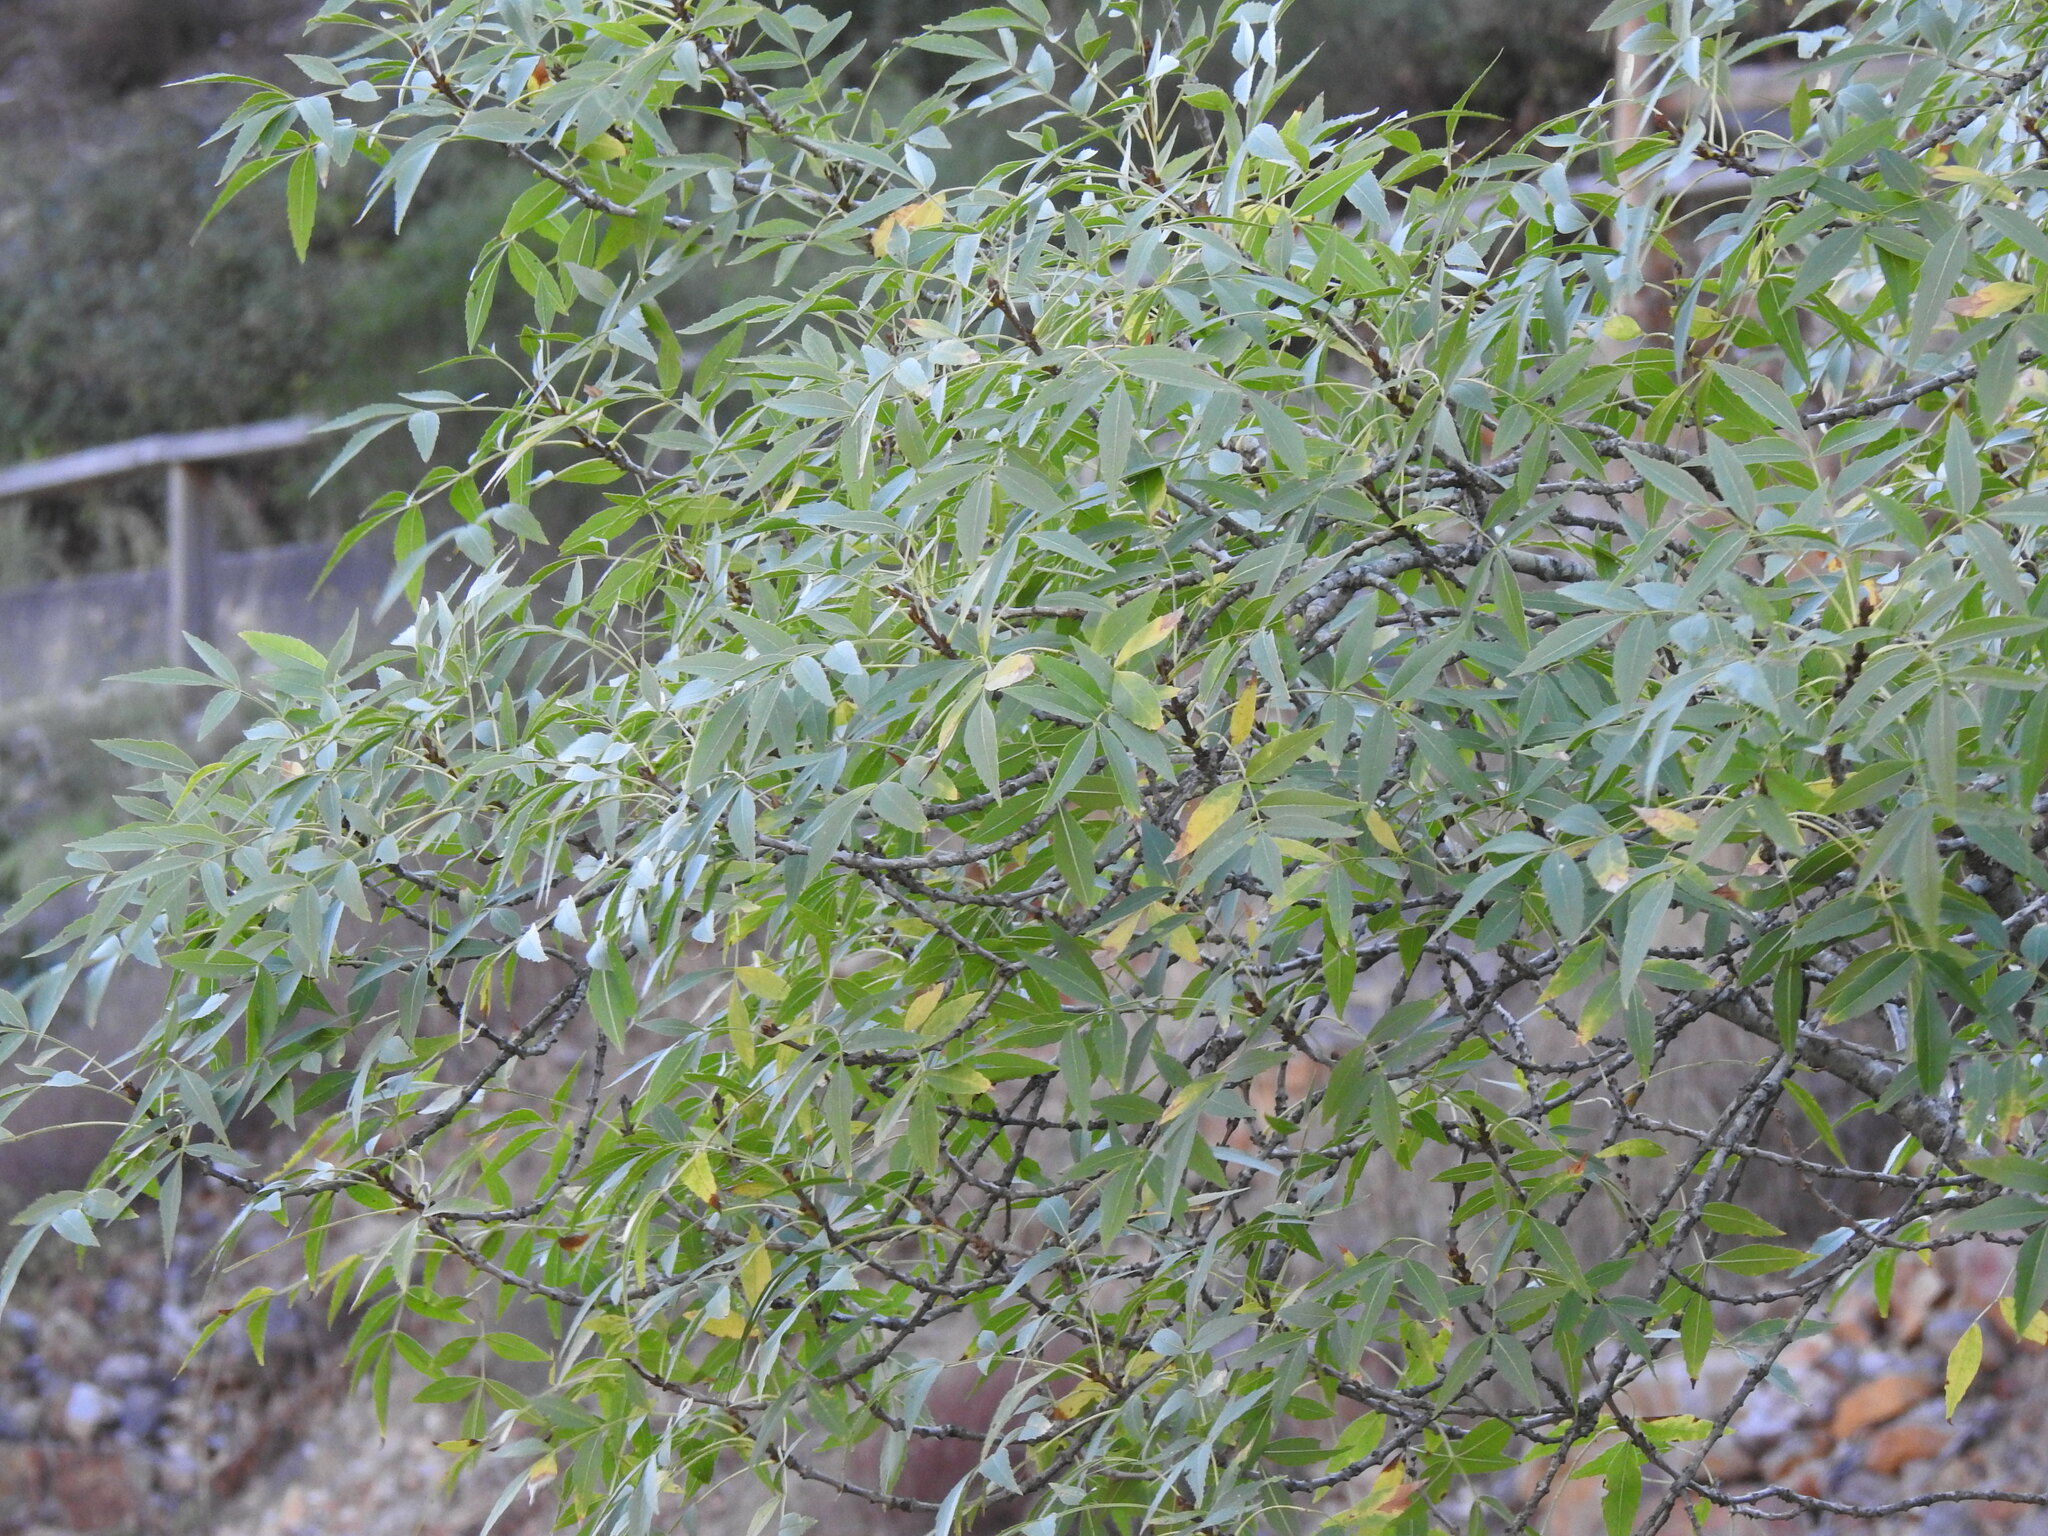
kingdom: Plantae
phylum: Tracheophyta
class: Magnoliopsida
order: Lamiales
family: Oleaceae
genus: Fraxinus
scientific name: Fraxinus angustifolia
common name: Narrow-leafed ash
